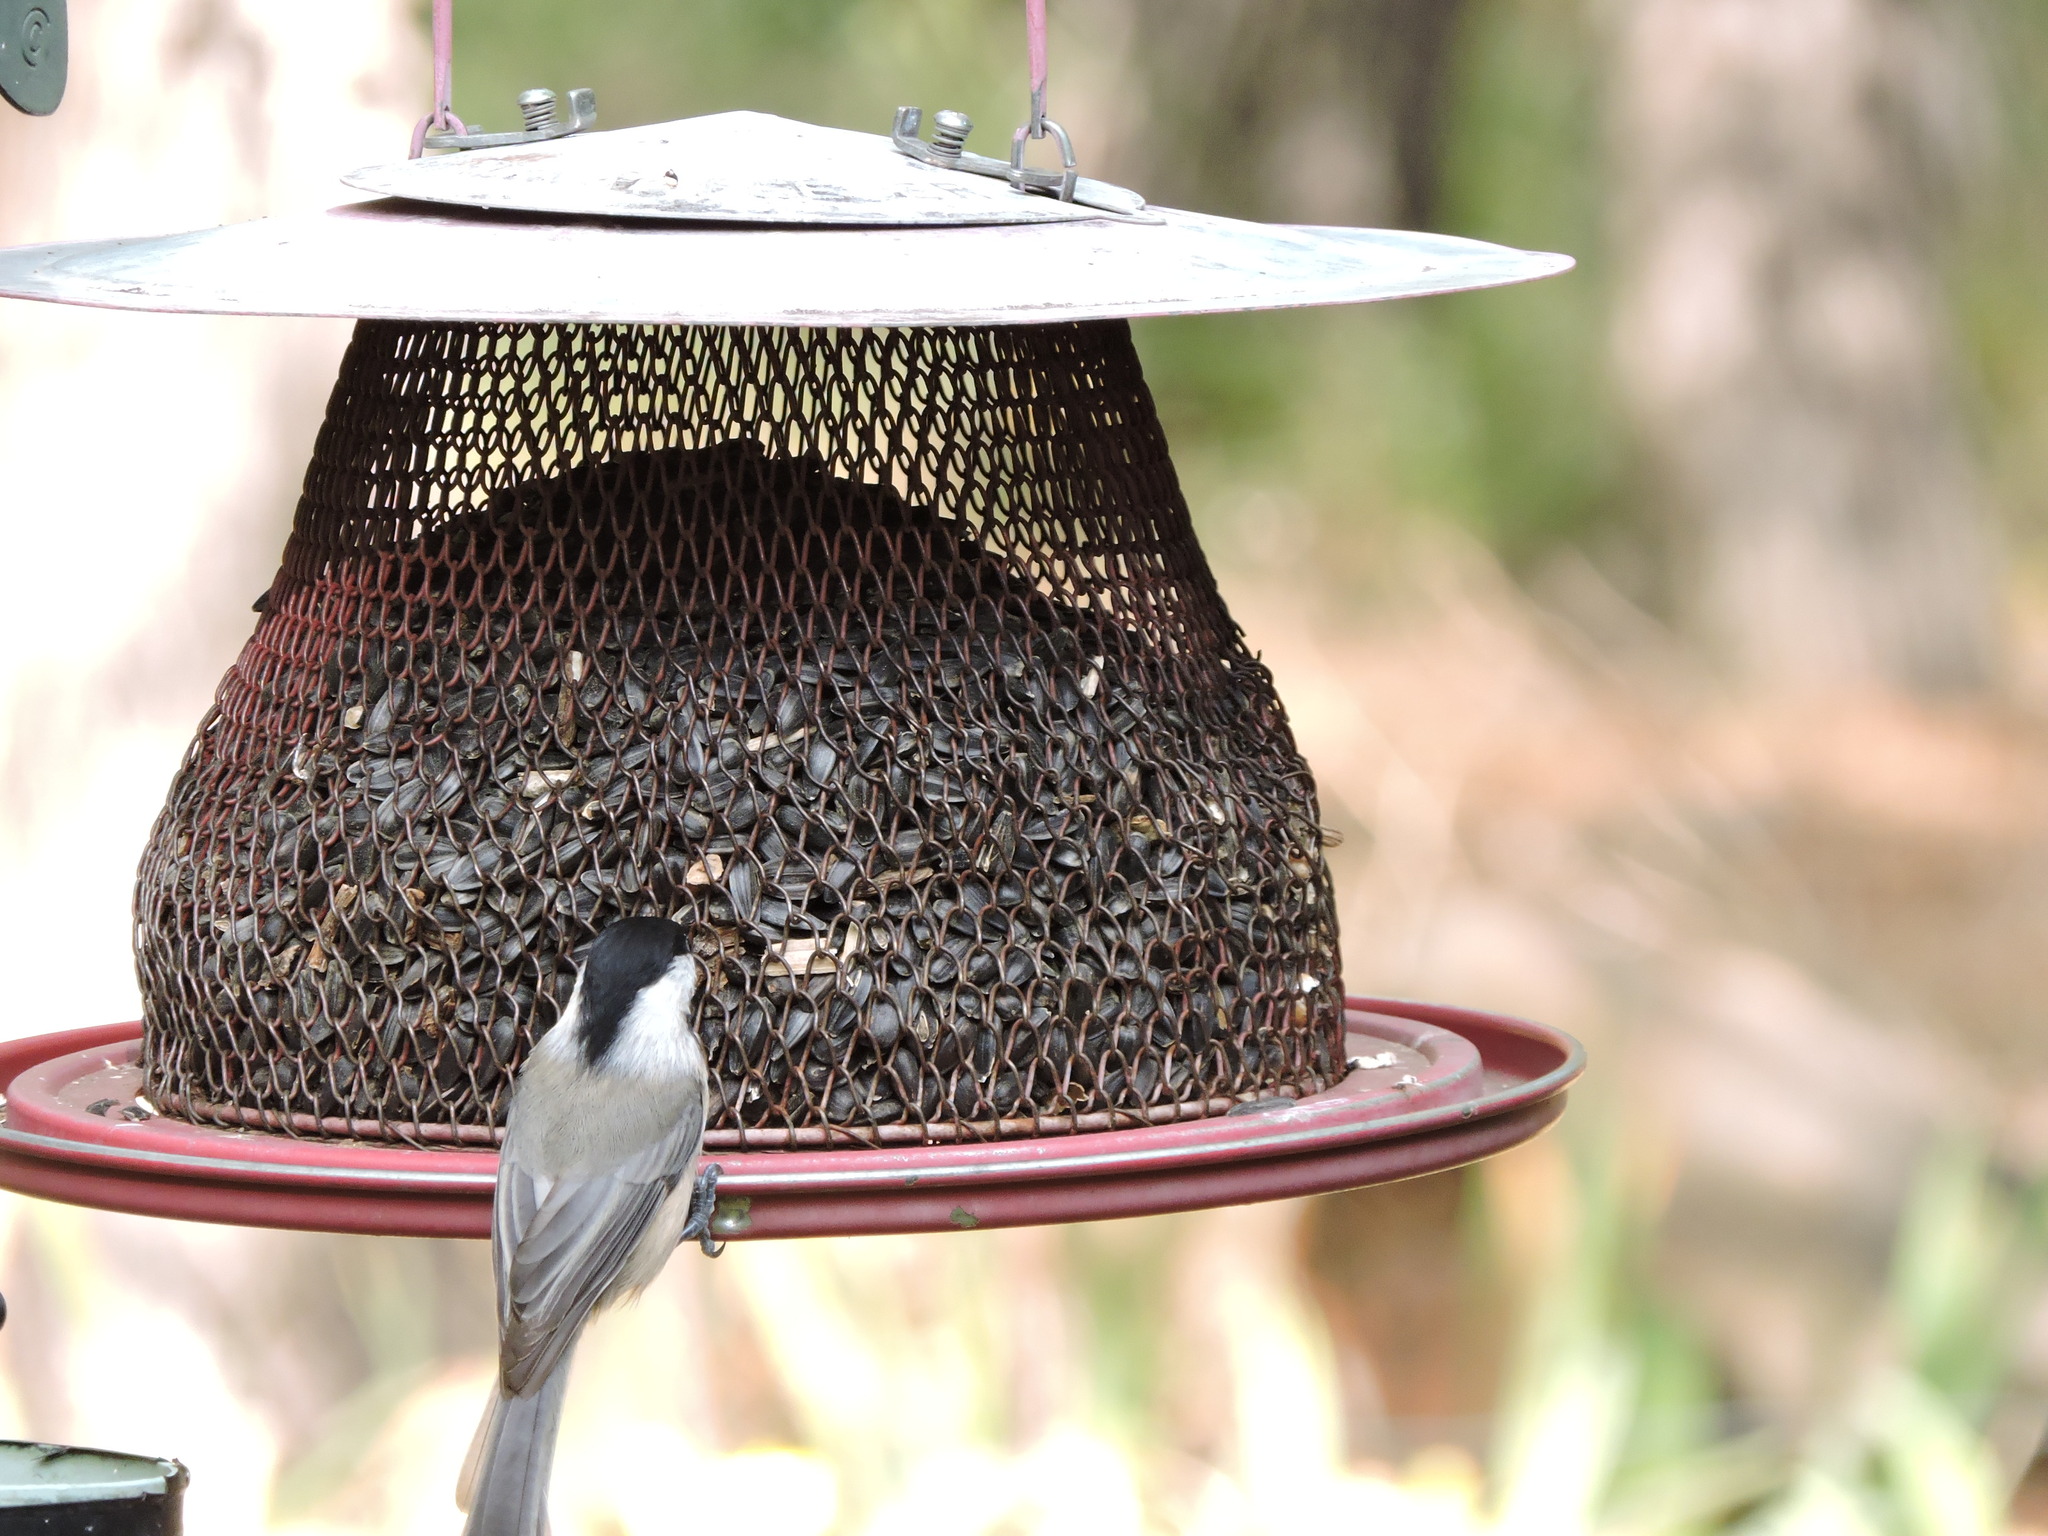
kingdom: Animalia
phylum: Chordata
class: Aves
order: Passeriformes
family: Paridae
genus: Poecile
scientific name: Poecile carolinensis
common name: Carolina chickadee
